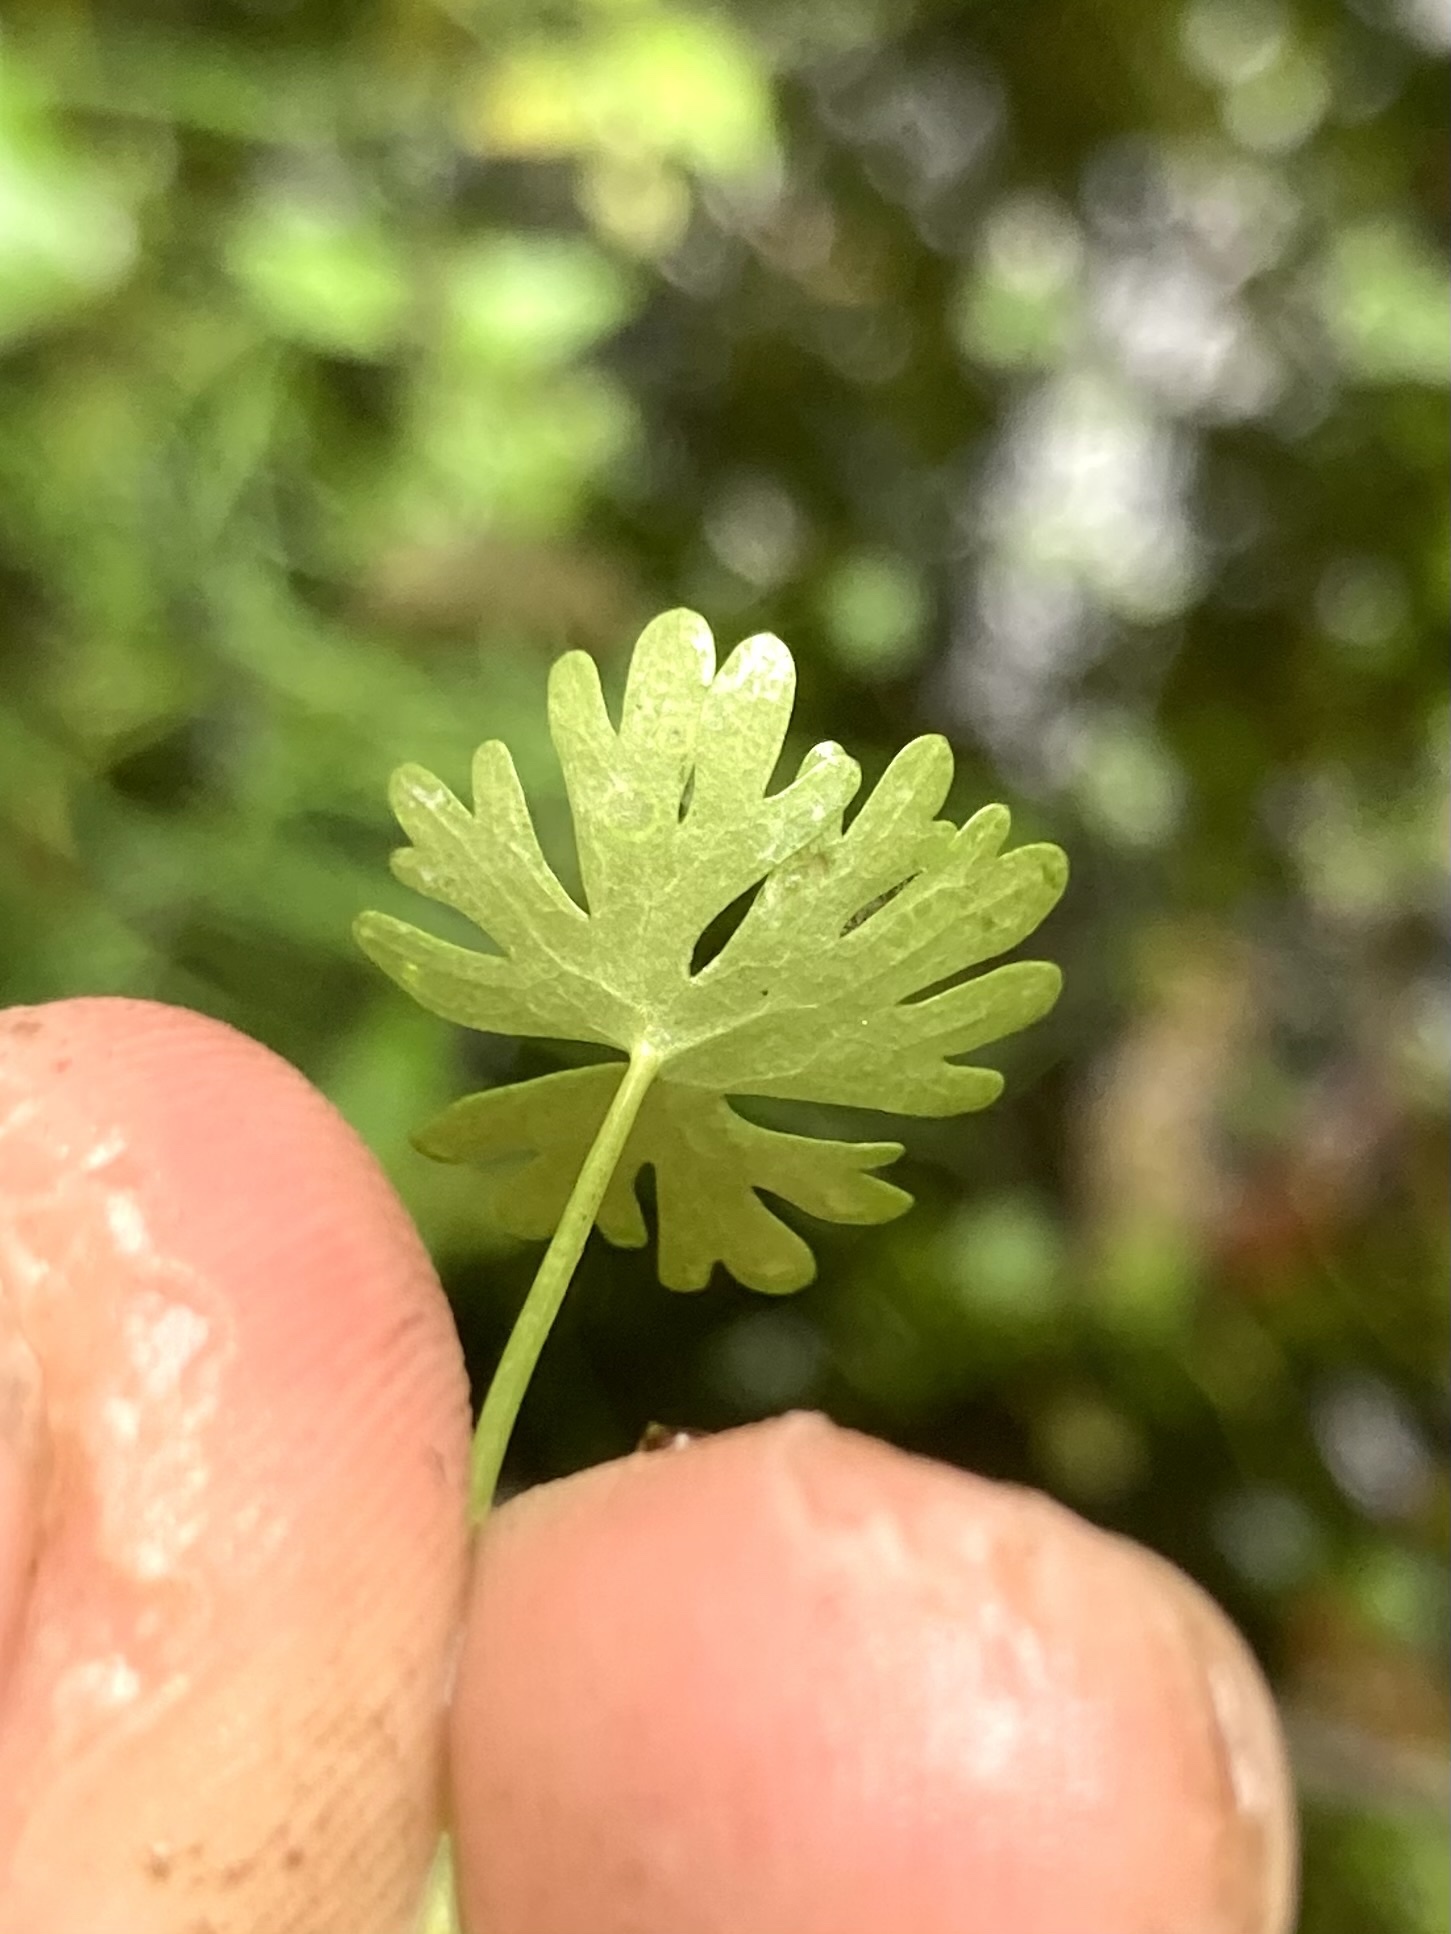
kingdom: Plantae
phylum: Tracheophyta
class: Magnoliopsida
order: Ranunculales
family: Ranunculaceae
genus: Ranunculus
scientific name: Ranunculus gmelinii
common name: Gmelin's buttercup
